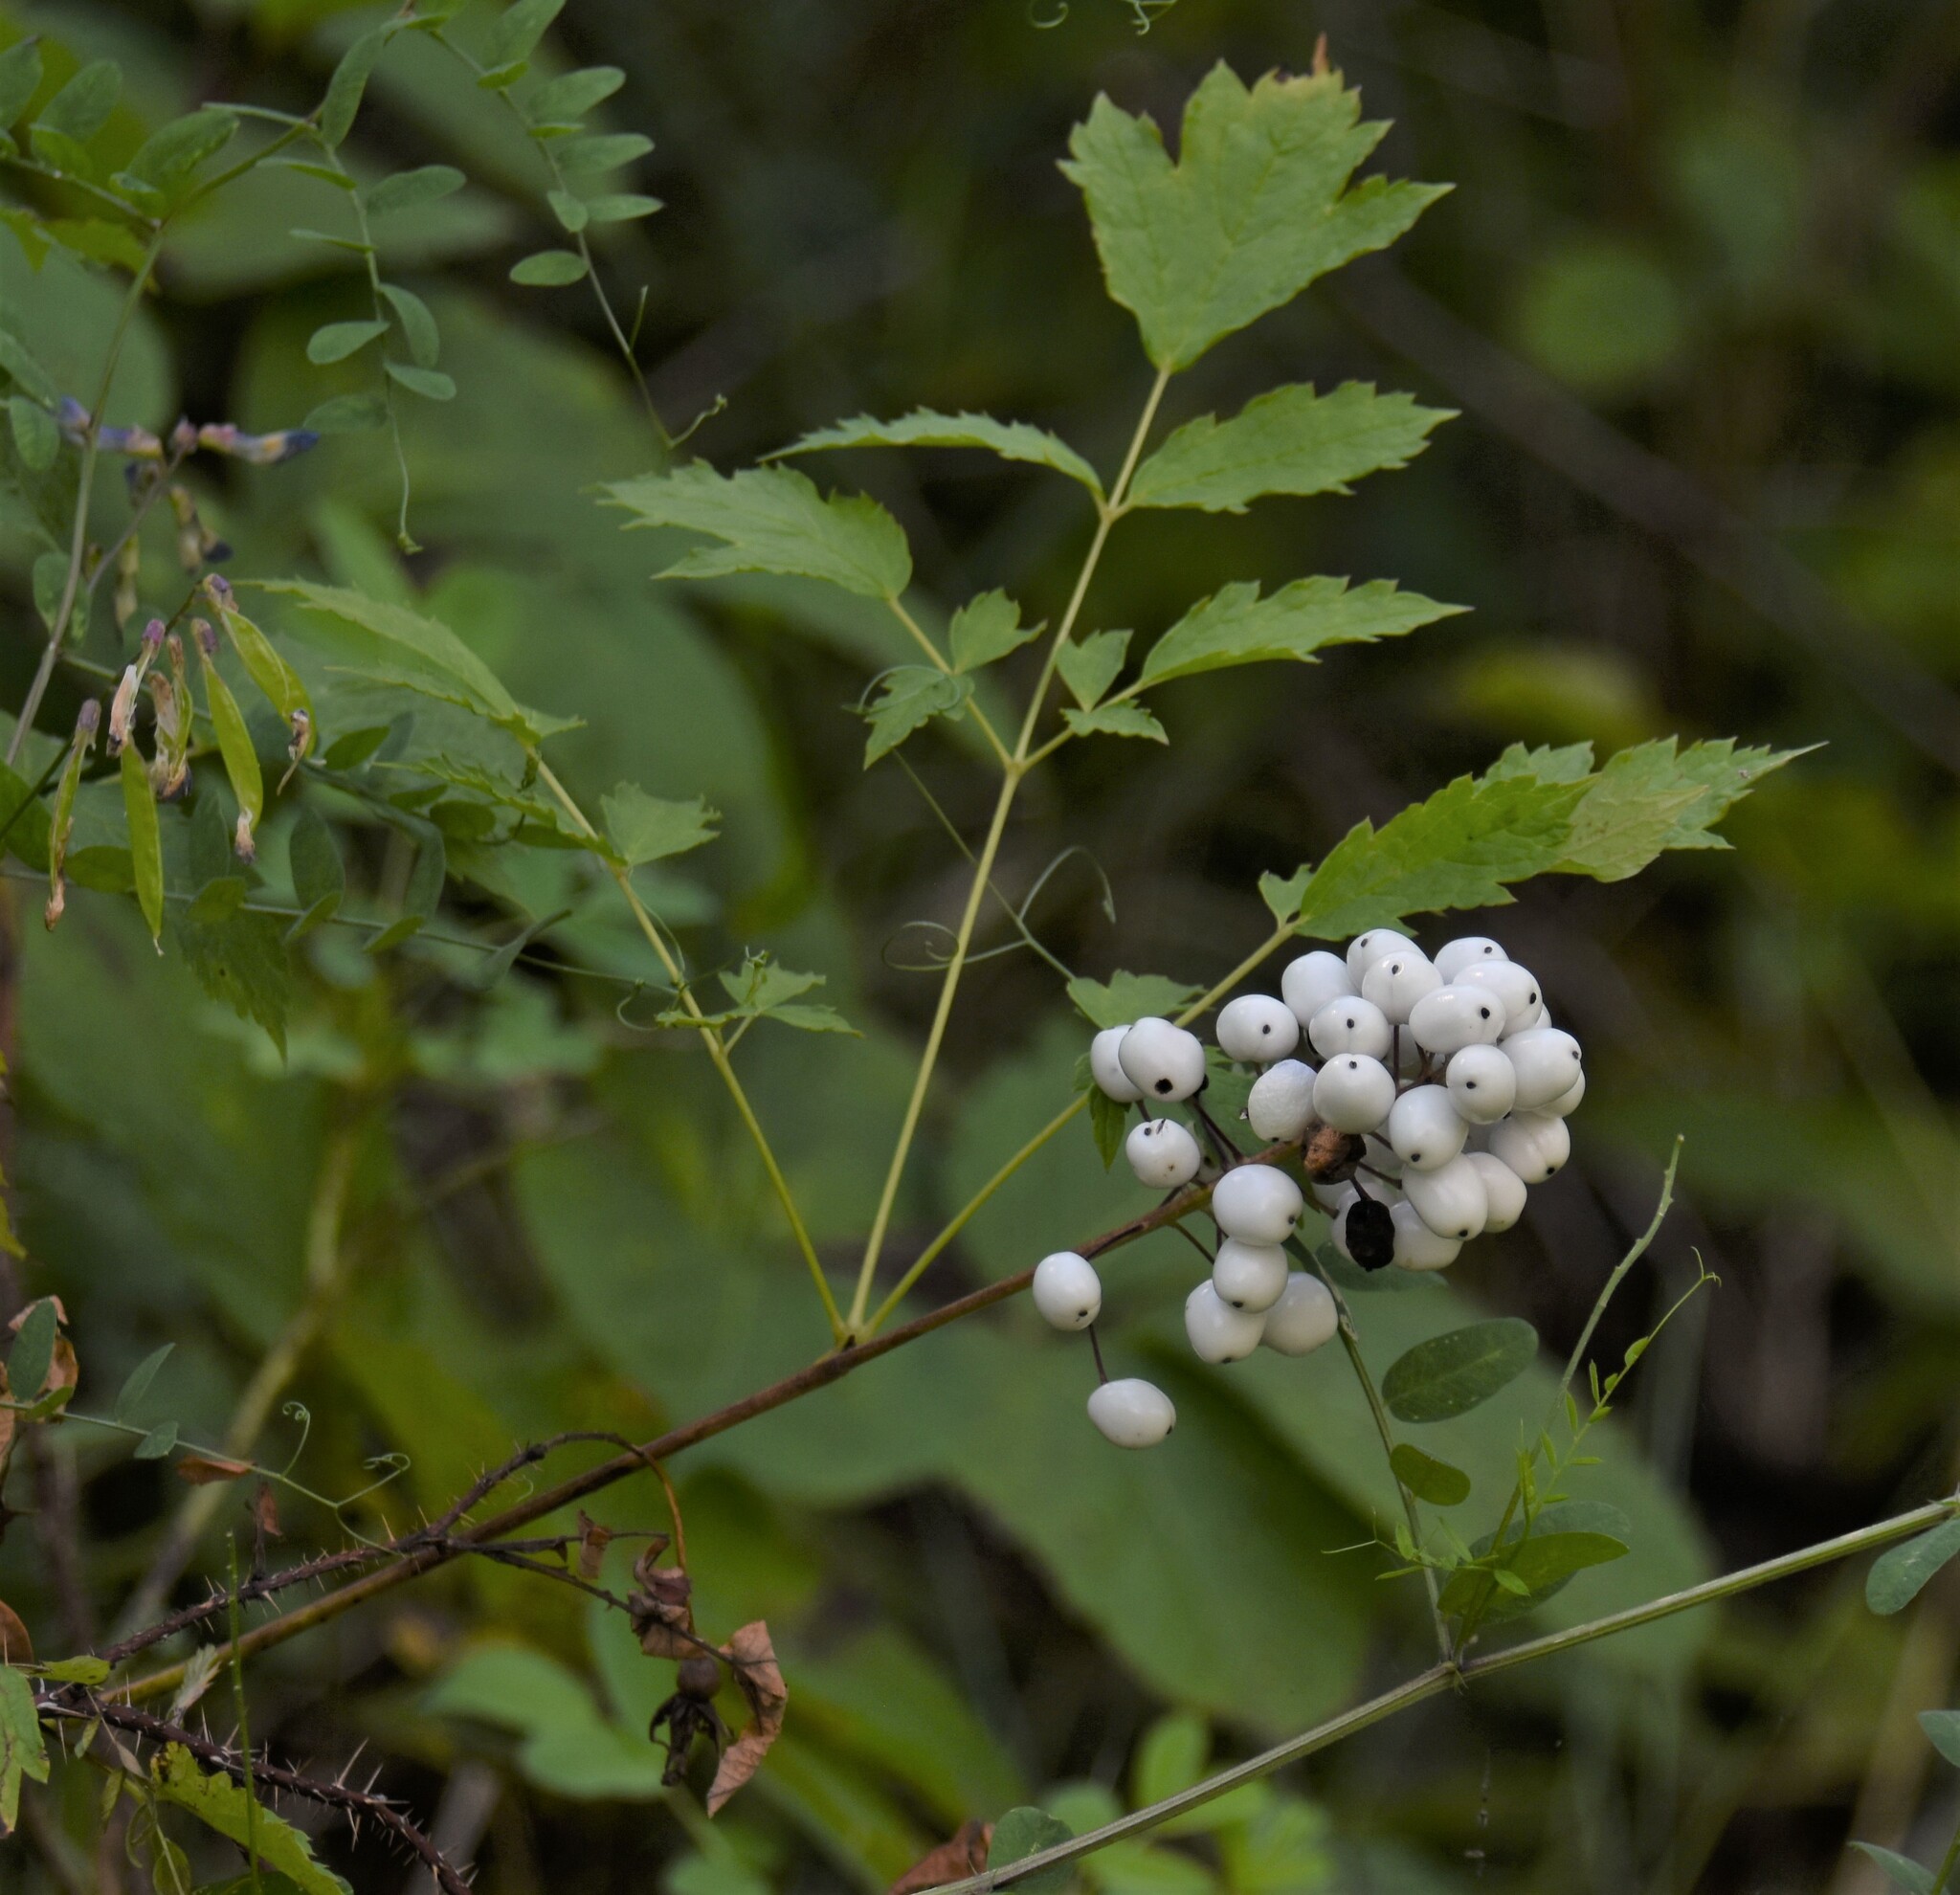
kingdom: Plantae
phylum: Tracheophyta
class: Magnoliopsida
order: Ranunculales
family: Ranunculaceae
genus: Actaea
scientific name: Actaea rubra
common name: Red baneberry
